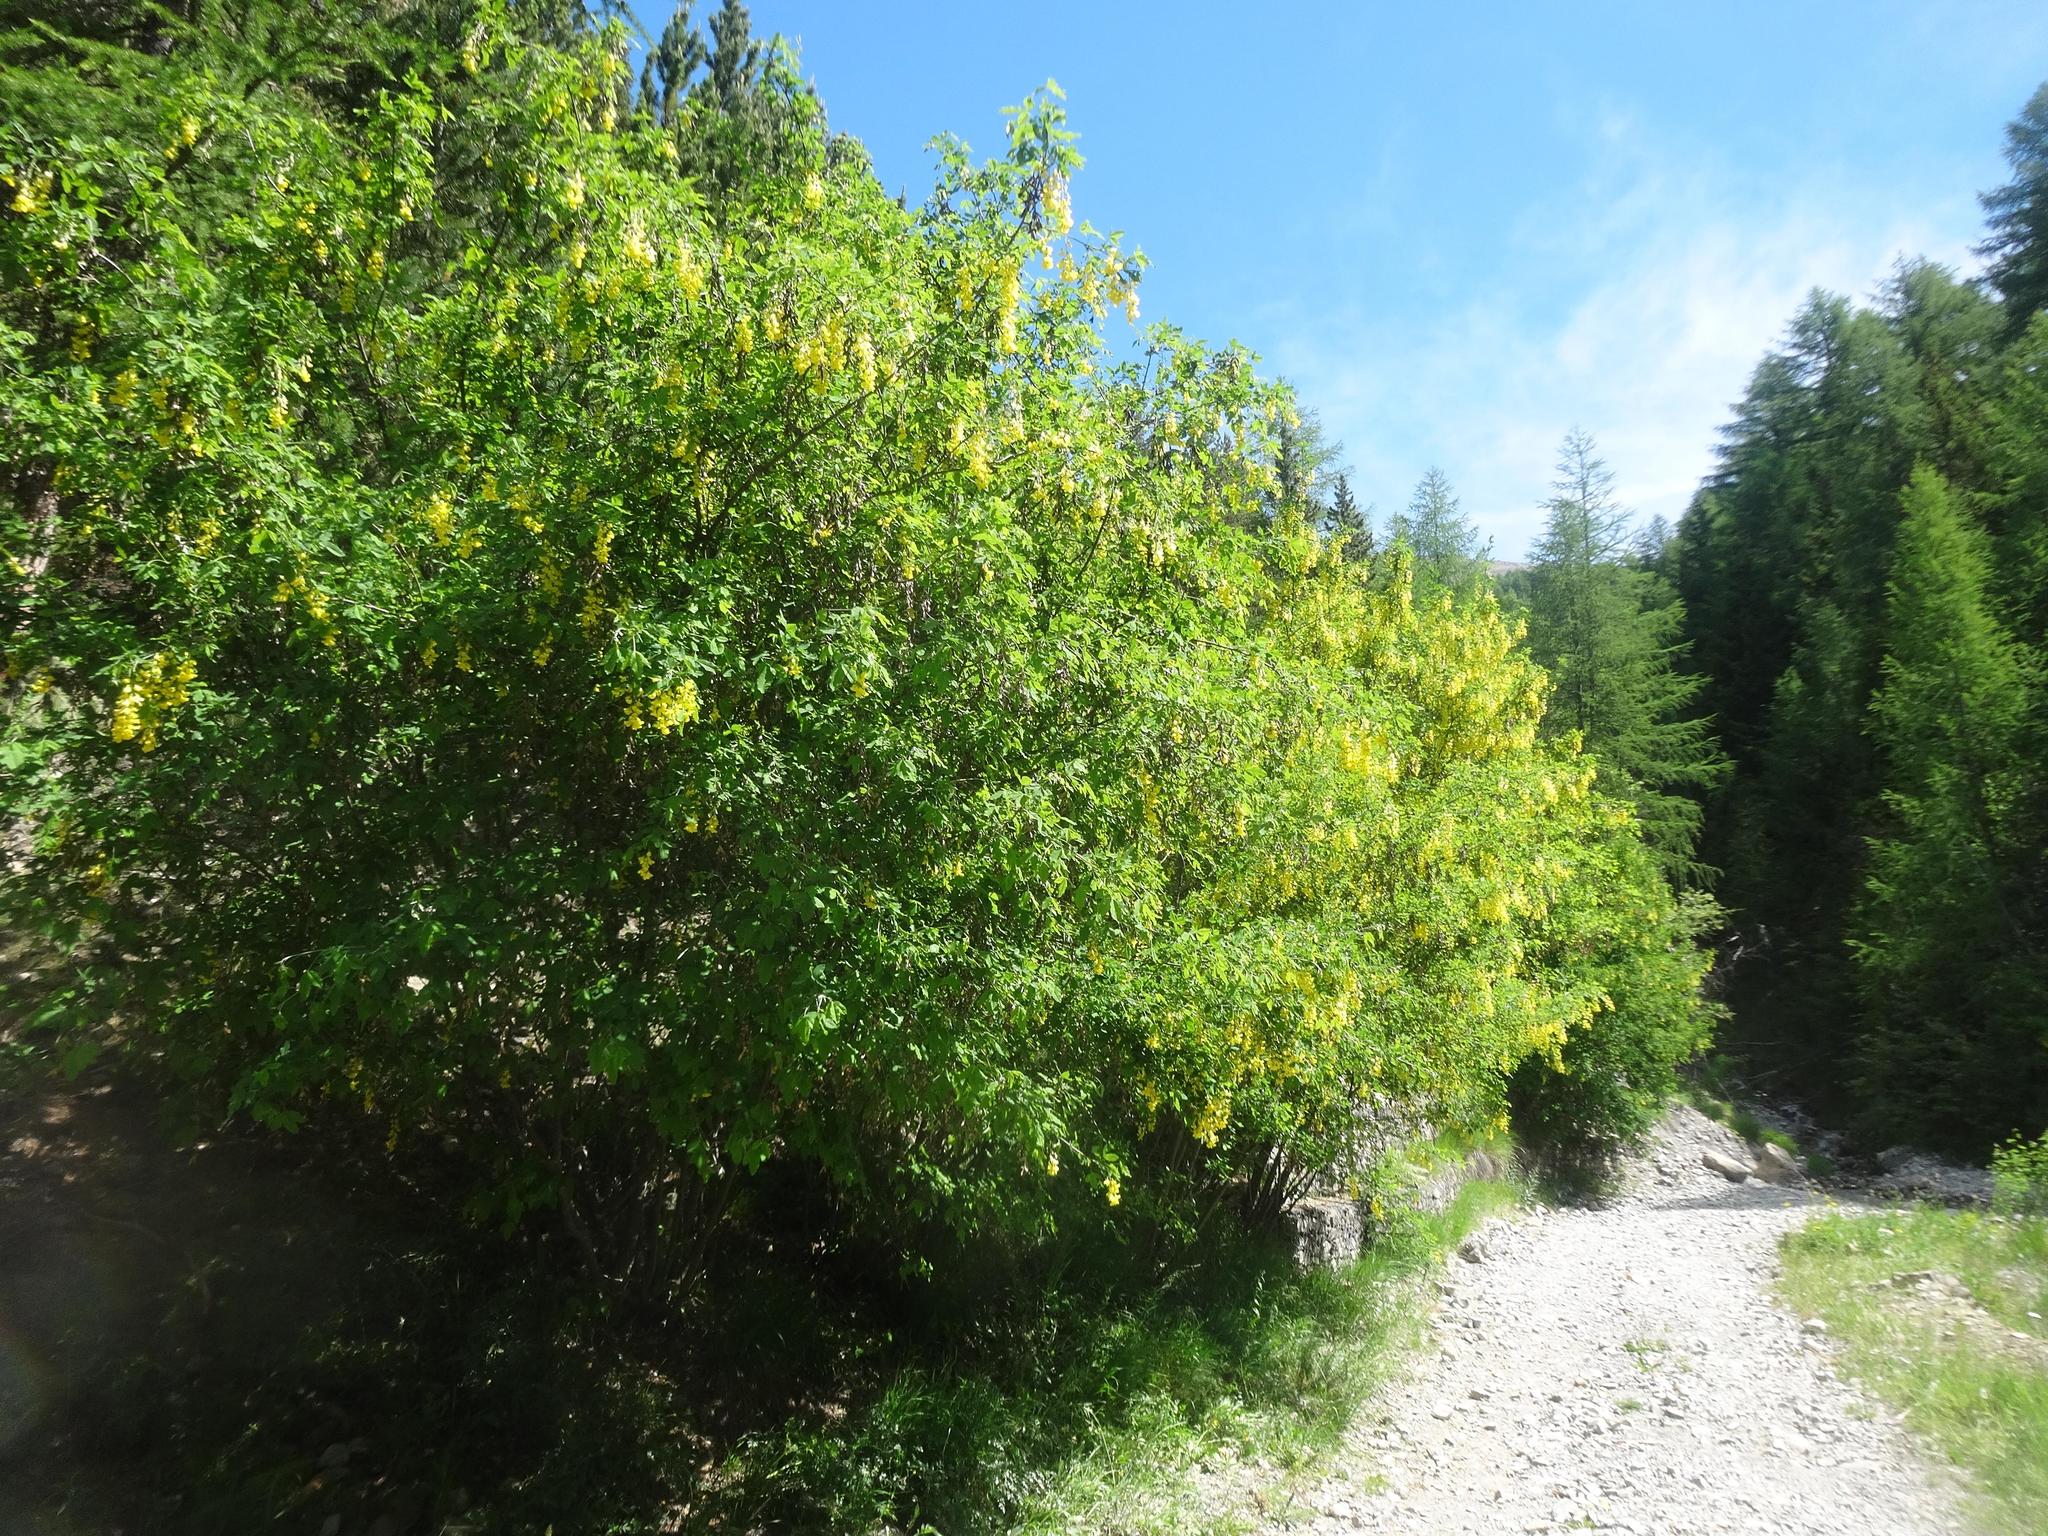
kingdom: Plantae
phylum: Tracheophyta
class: Magnoliopsida
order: Fabales
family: Fabaceae
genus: Laburnum
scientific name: Laburnum anagyroides
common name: Laburnum
